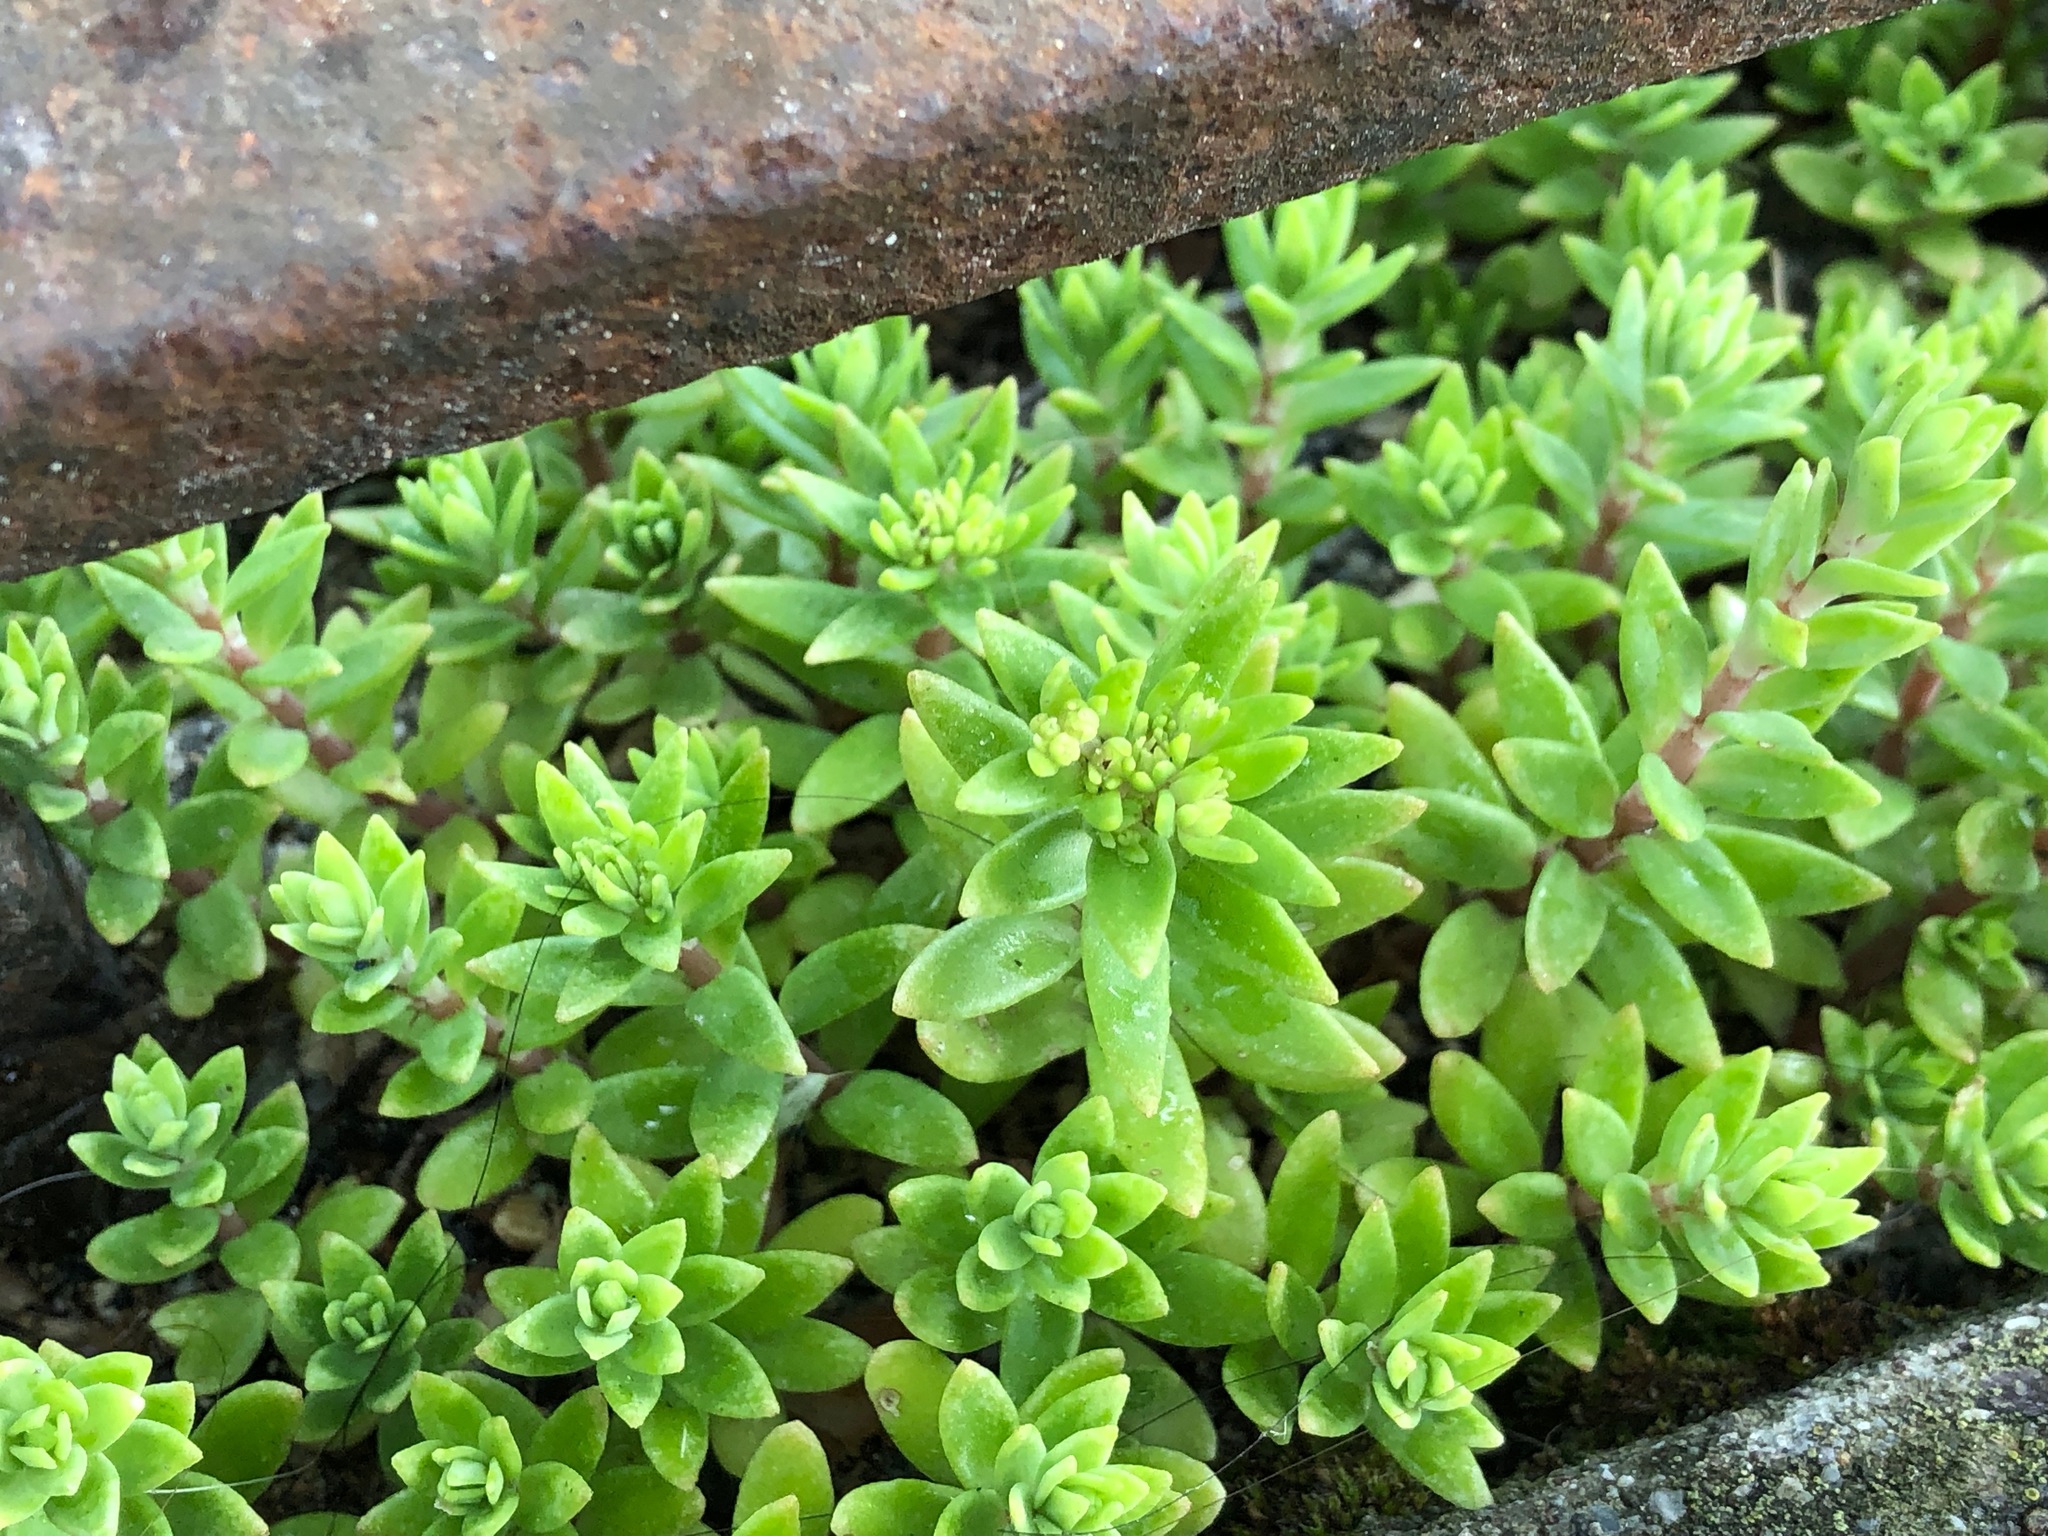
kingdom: Plantae
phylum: Tracheophyta
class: Magnoliopsida
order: Saxifragales
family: Crassulaceae
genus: Sedum
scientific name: Sedum sarmentosum
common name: Stringy stonecrop
